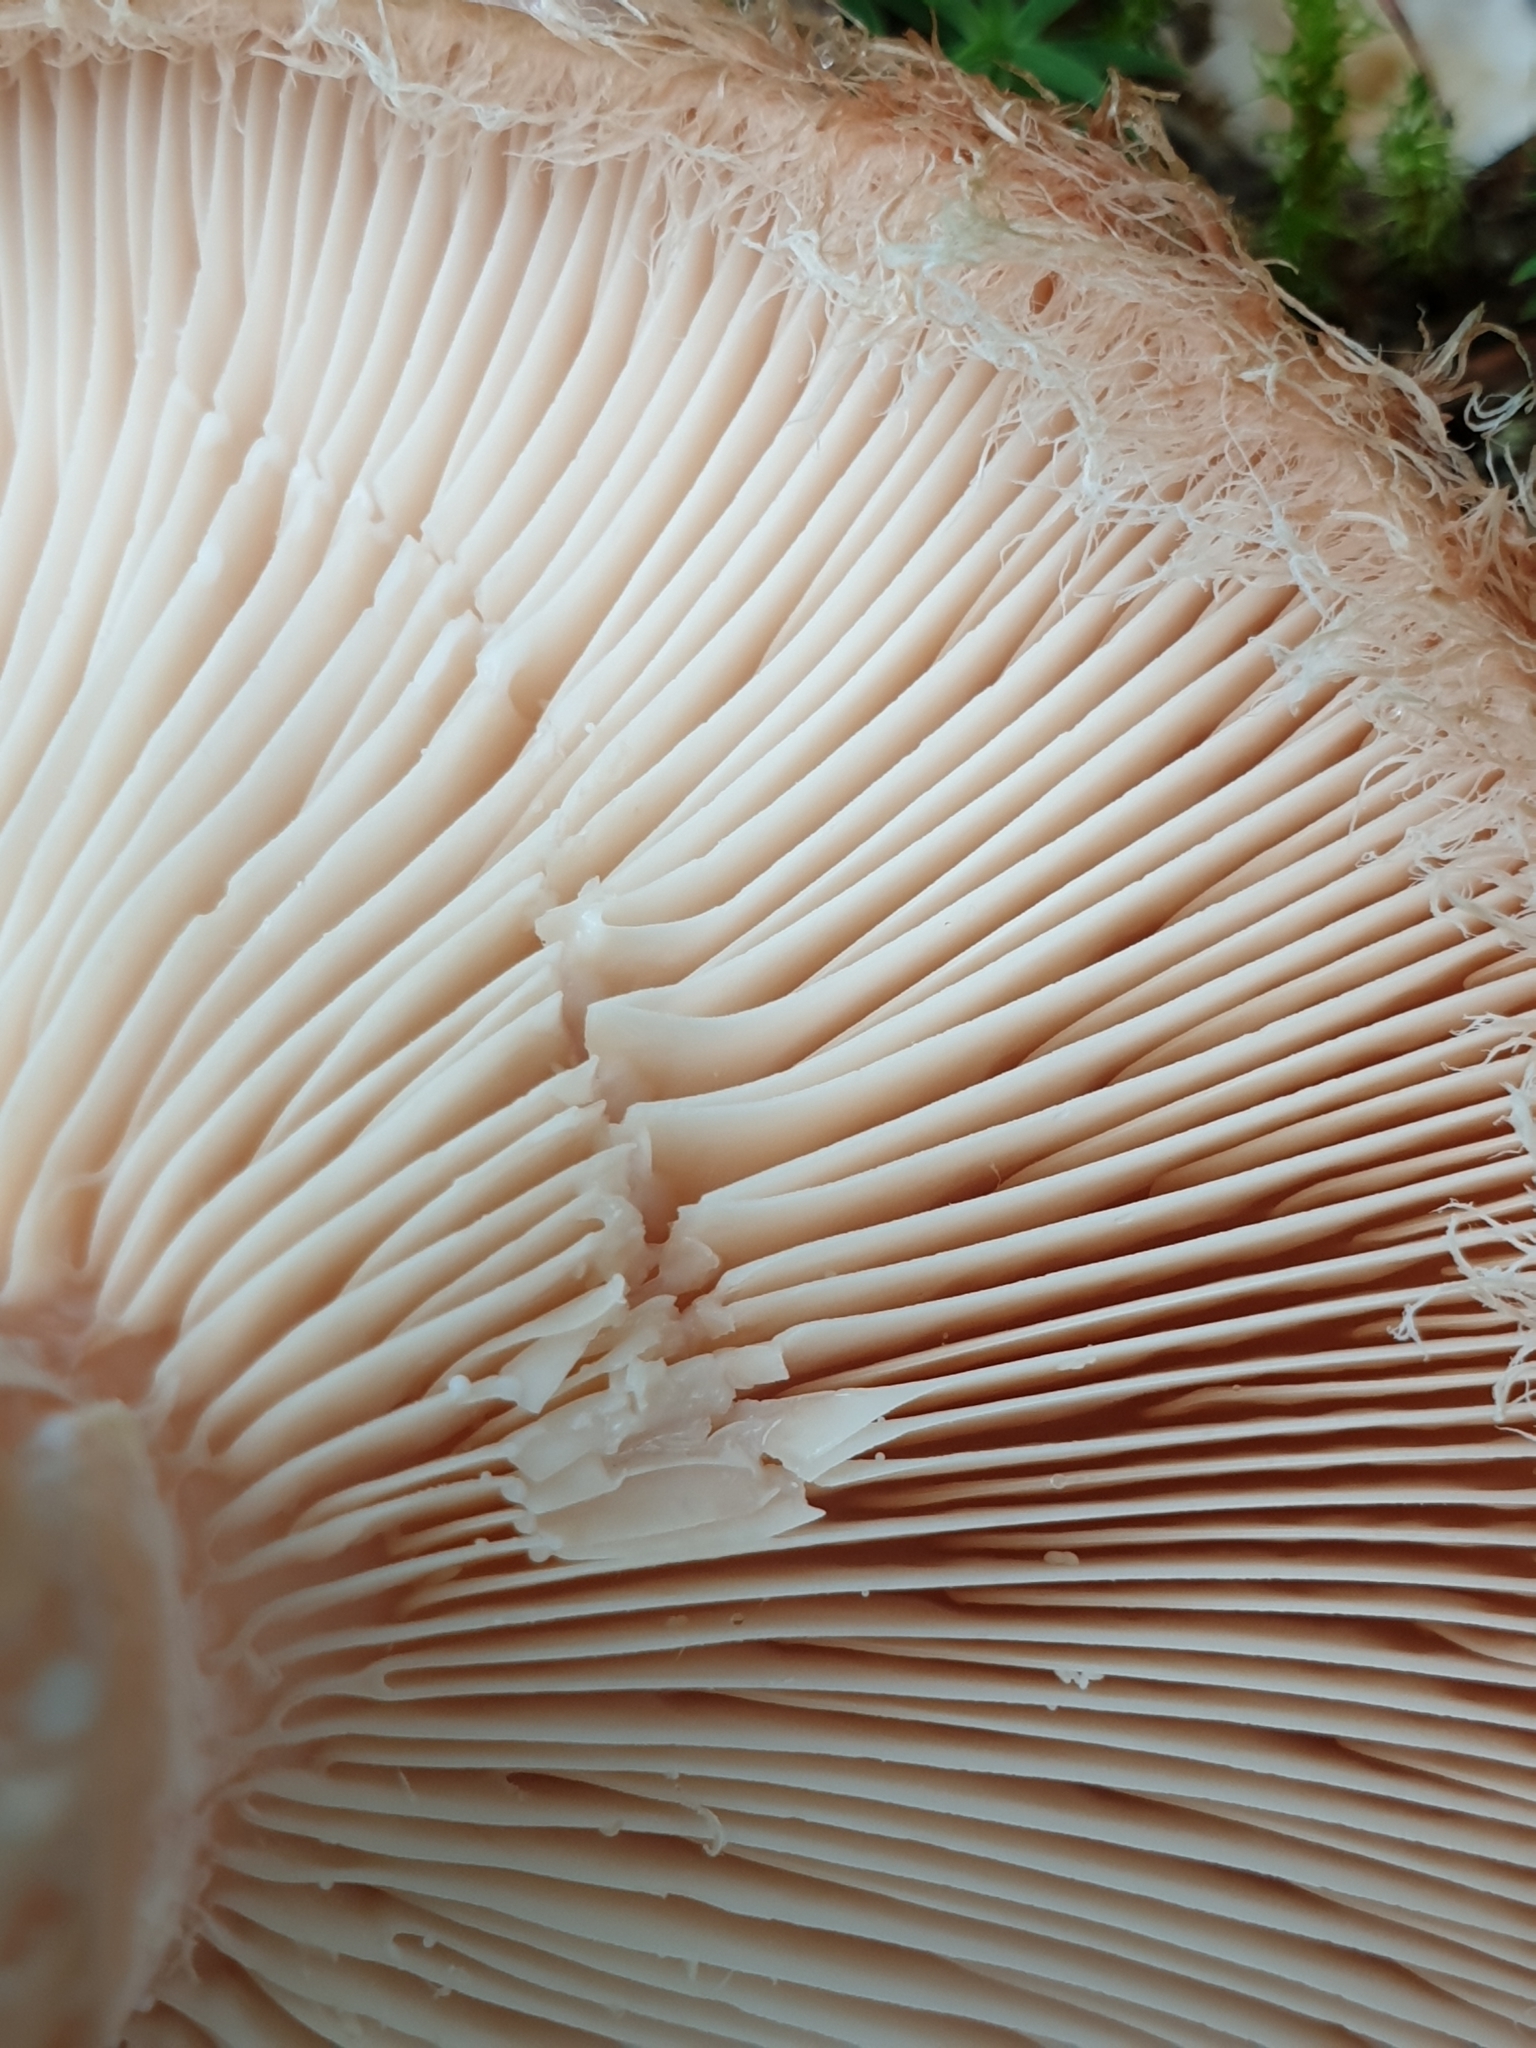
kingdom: Fungi
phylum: Basidiomycota
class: Agaricomycetes
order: Russulales
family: Russulaceae
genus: Lactarius
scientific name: Lactarius torminosus
